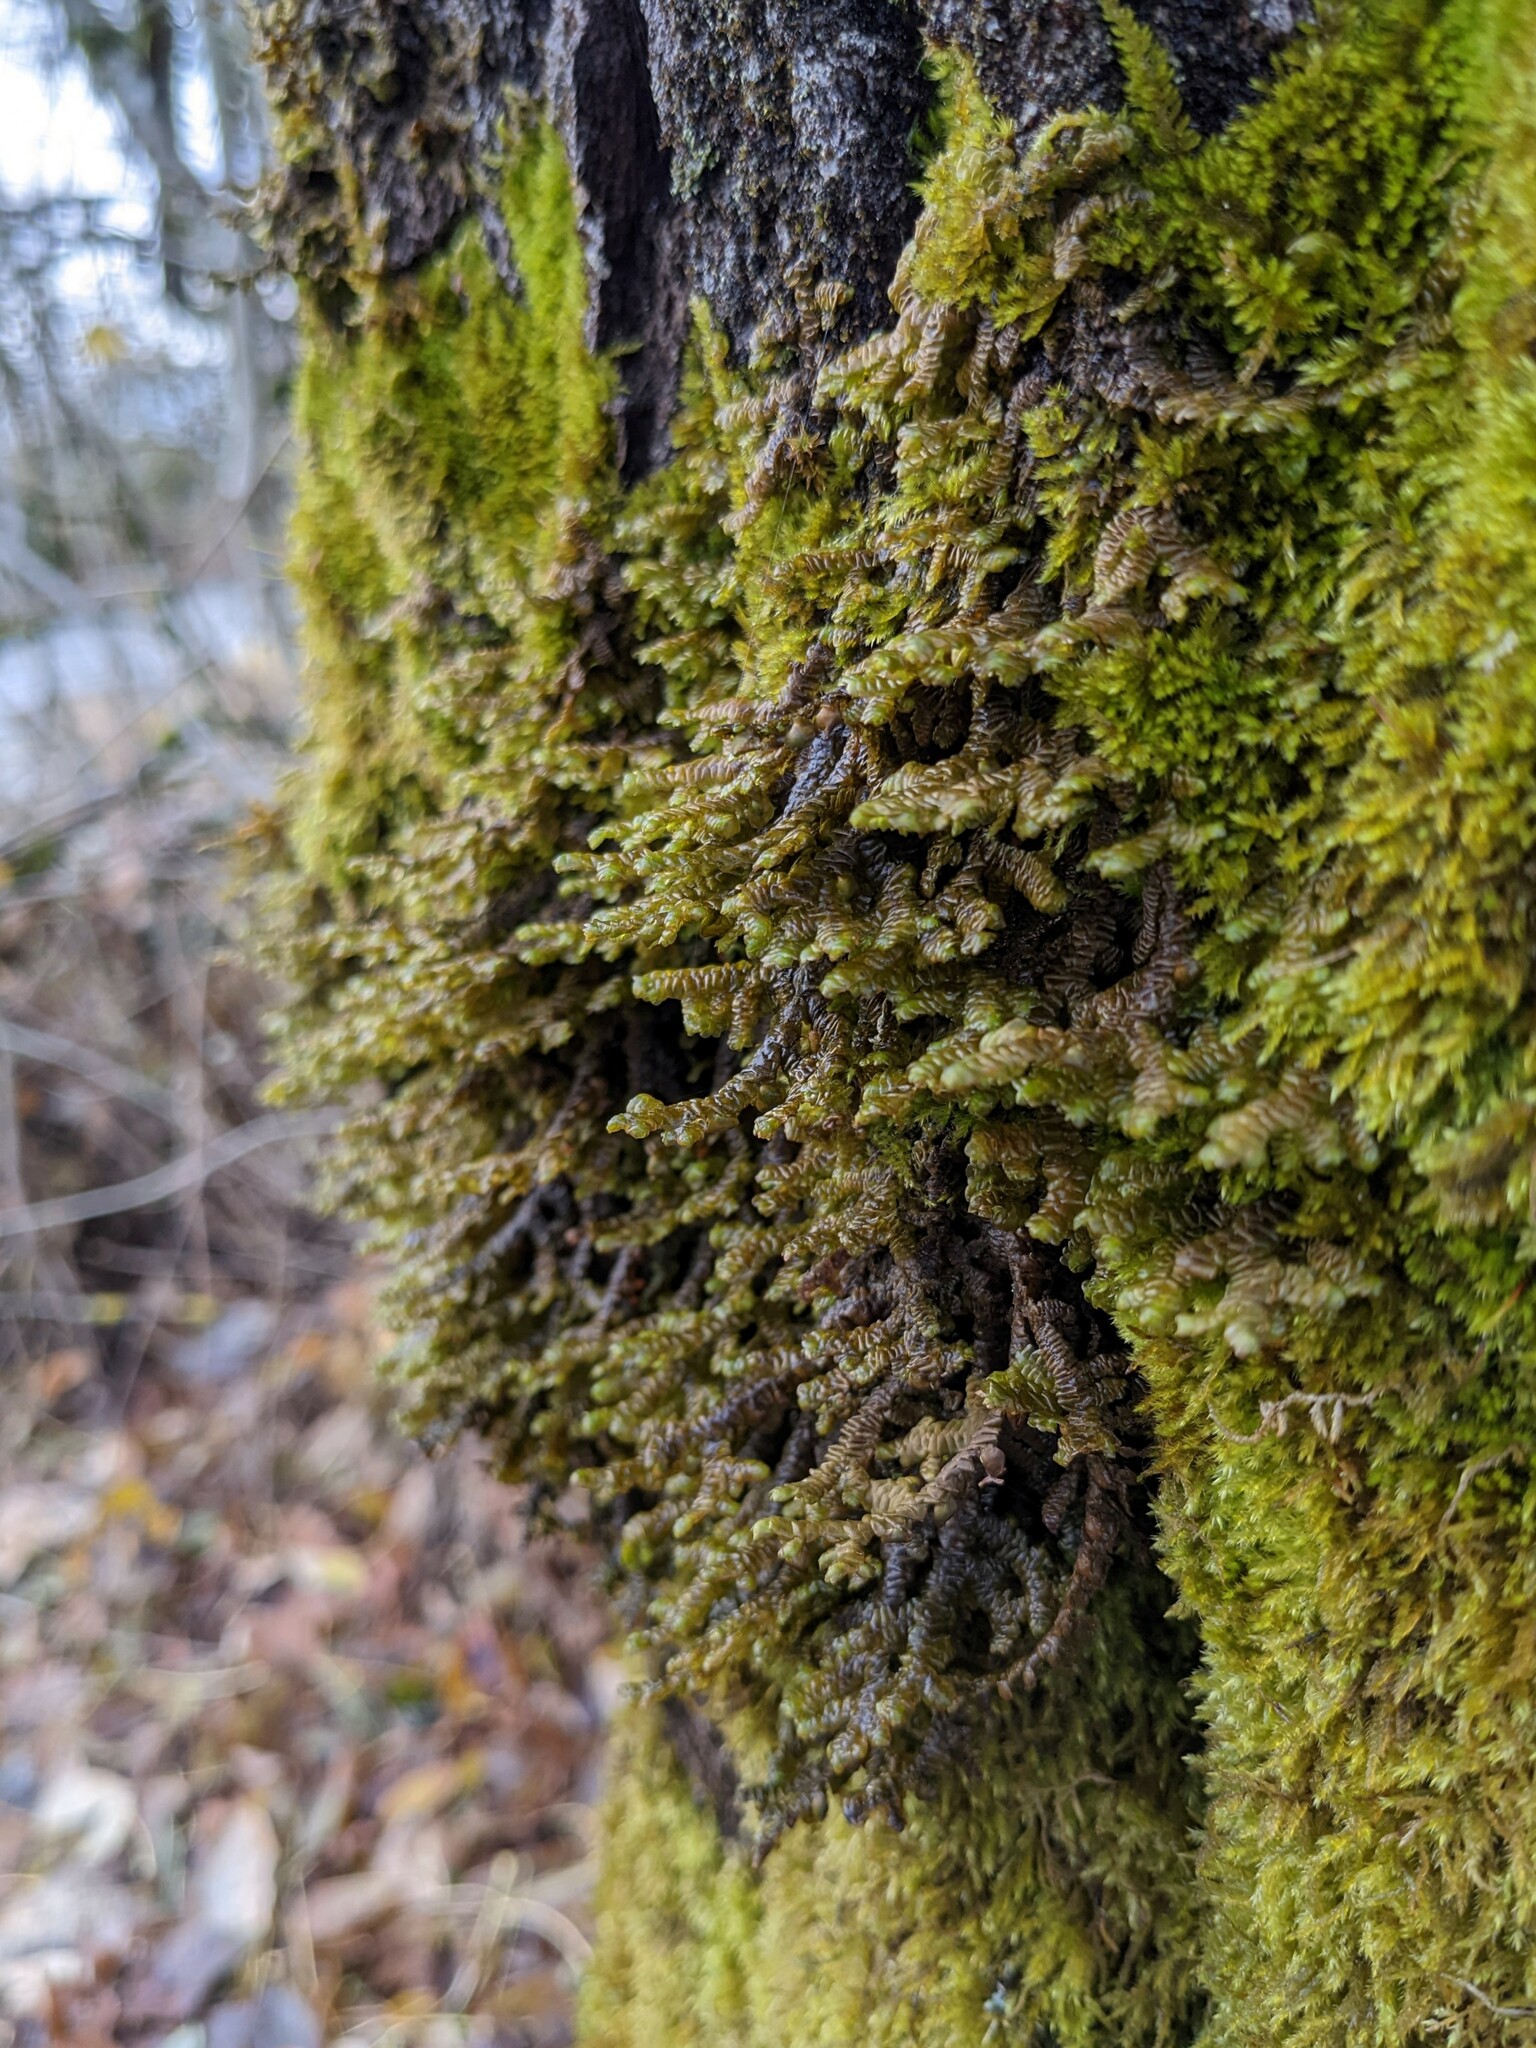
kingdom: Plantae
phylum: Marchantiophyta
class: Jungermanniopsida
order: Porellales
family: Porellaceae
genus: Porella
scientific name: Porella navicularis
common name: Tree ruffle liverwort
